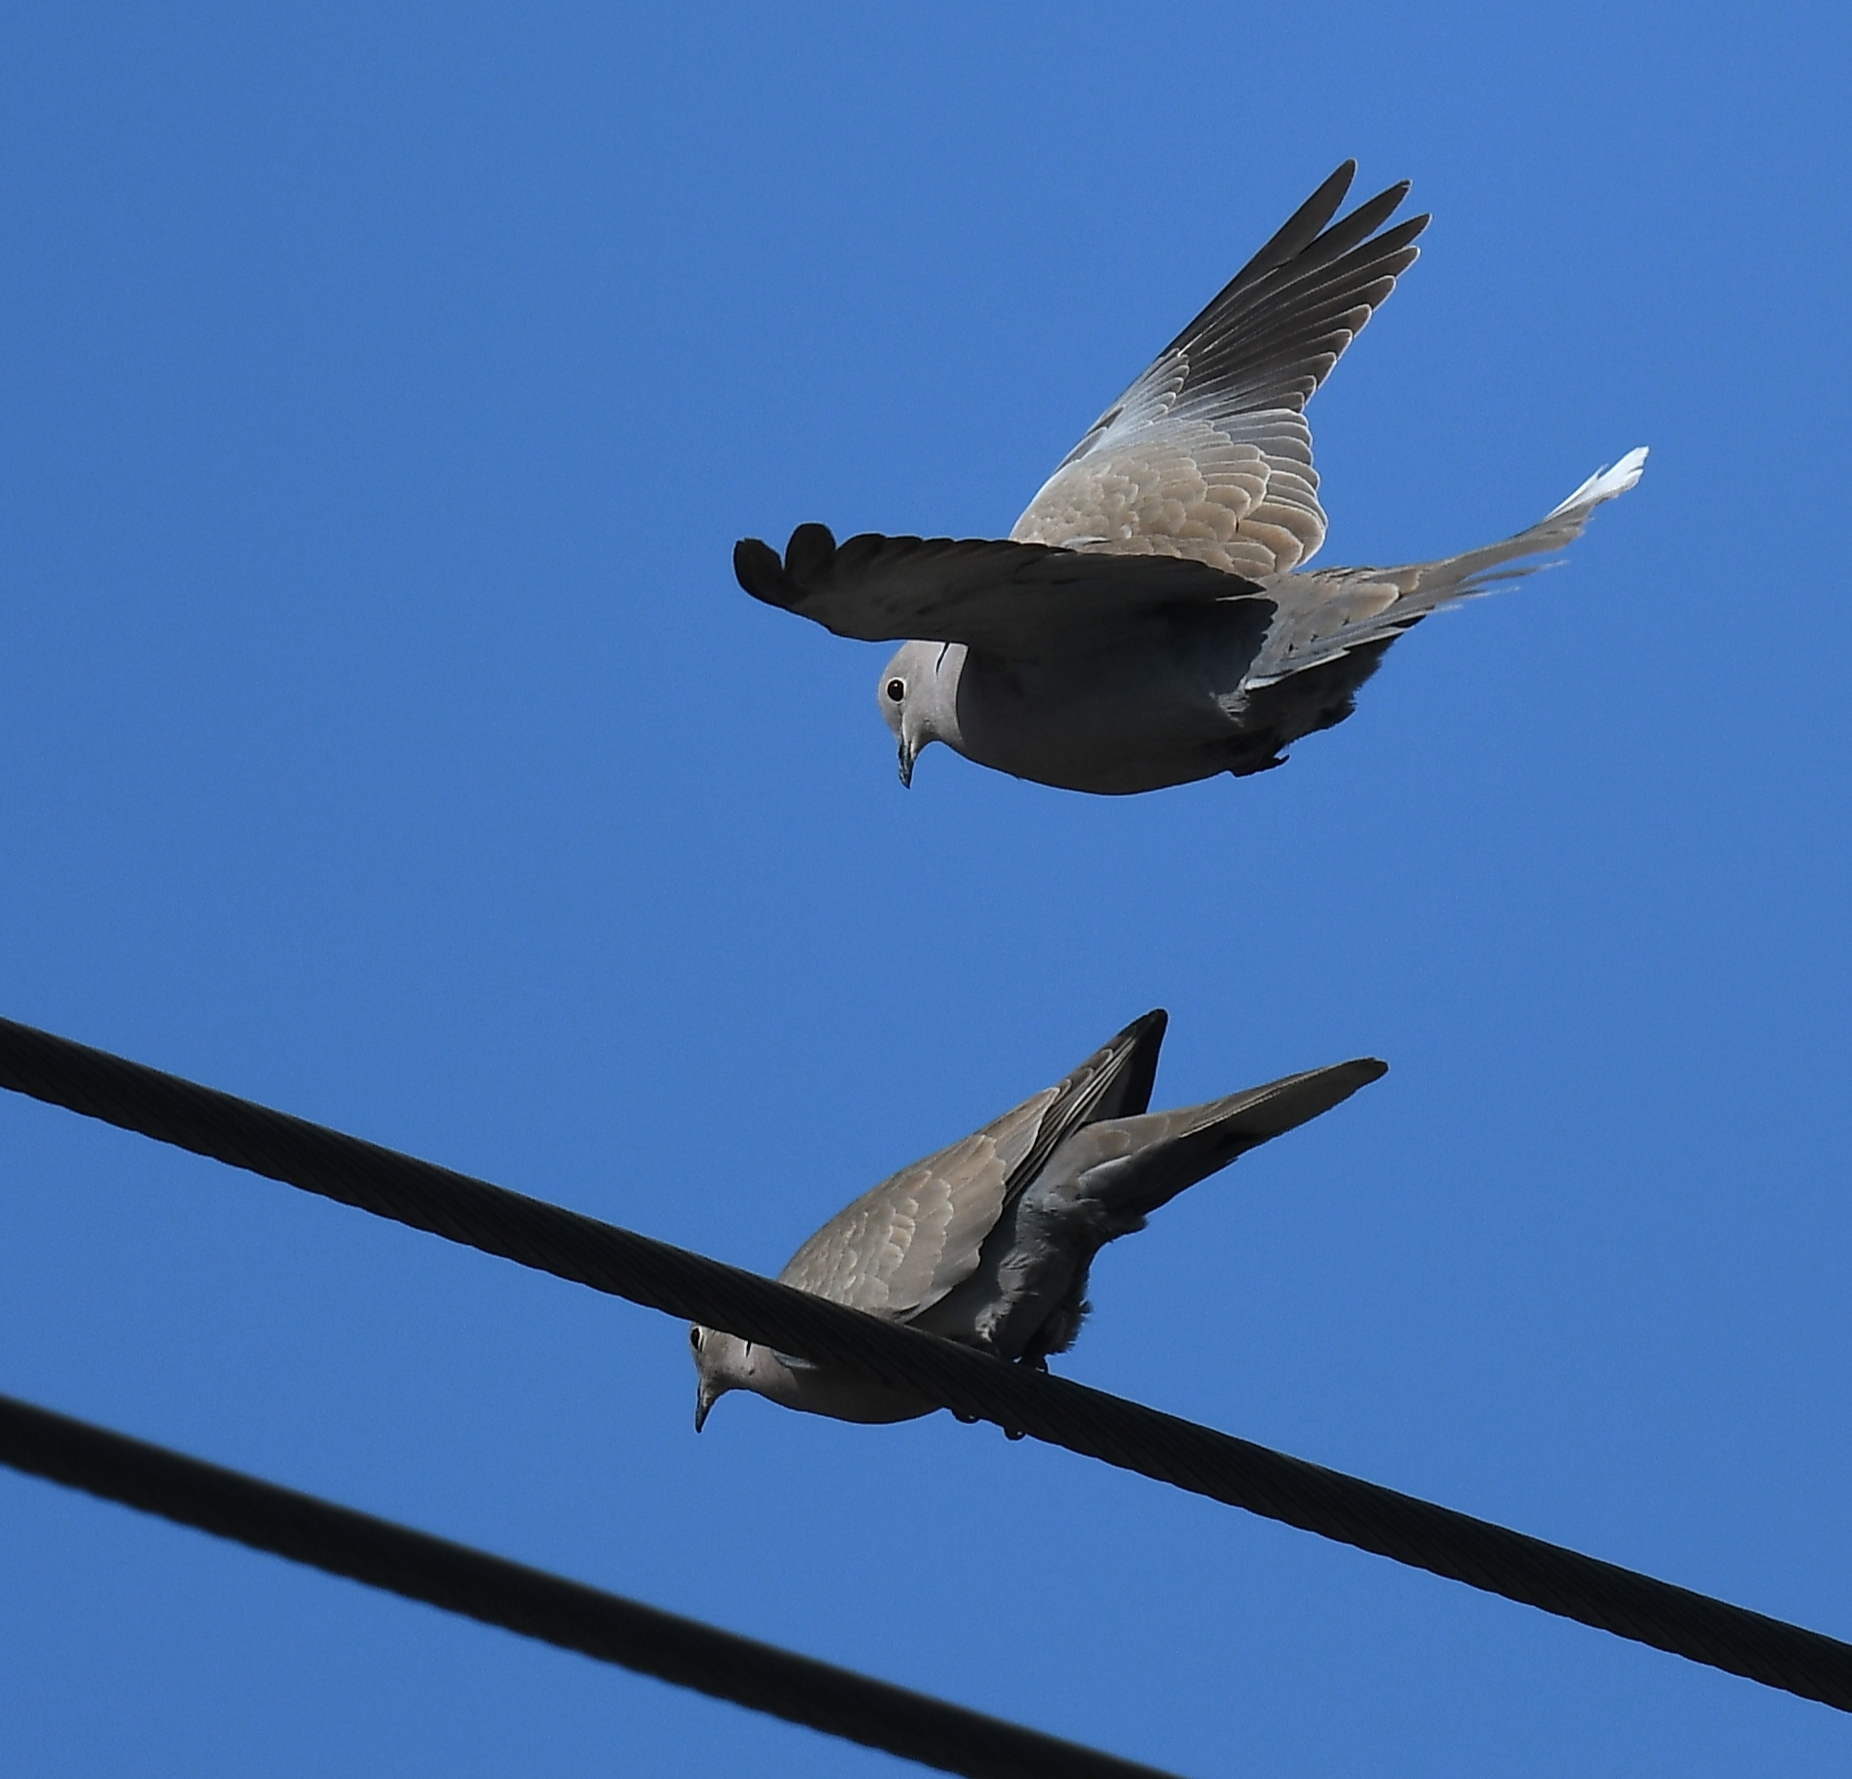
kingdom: Animalia
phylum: Chordata
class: Aves
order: Columbiformes
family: Columbidae
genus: Streptopelia
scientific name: Streptopelia decaocto
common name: Eurasian collared dove
